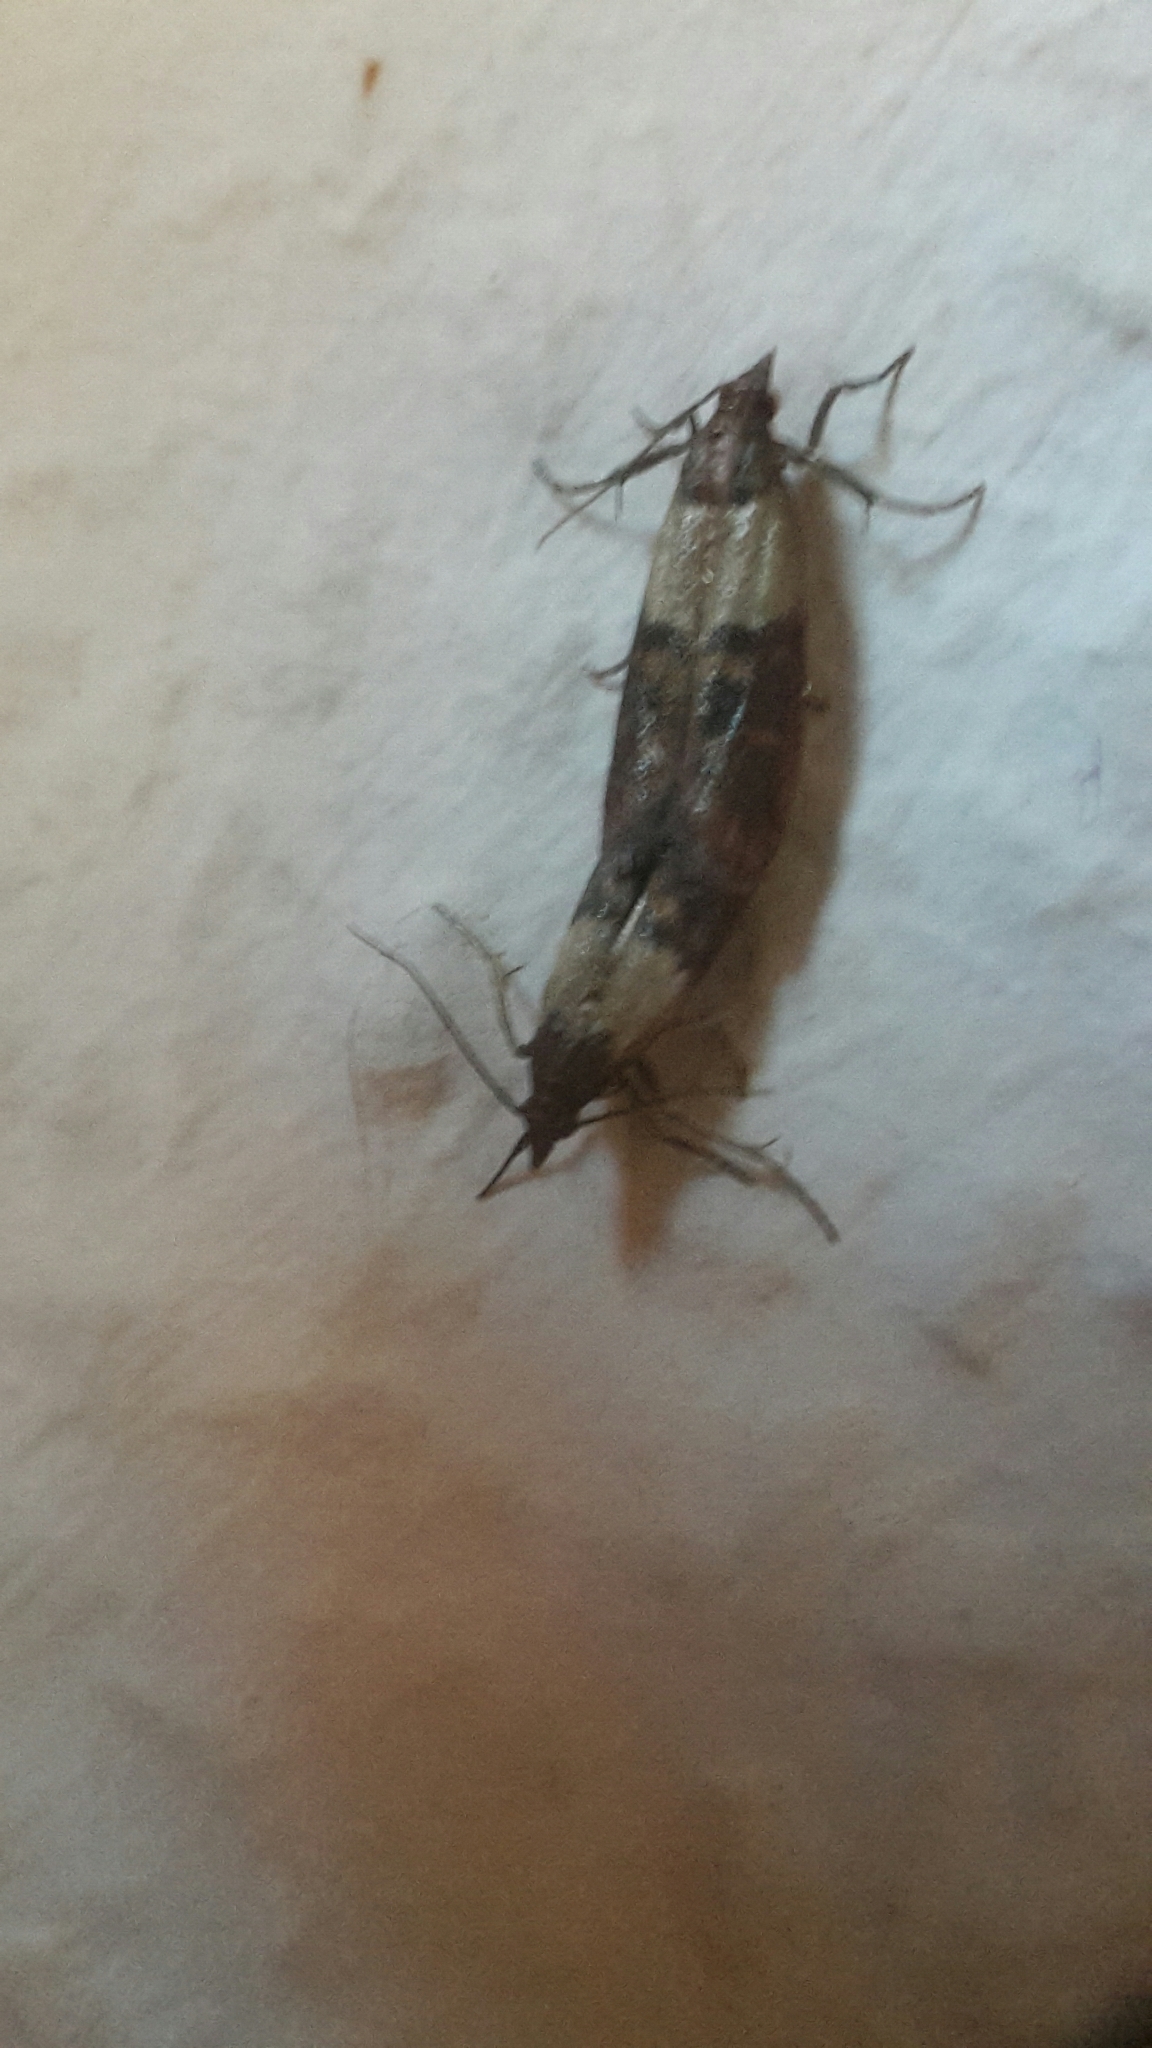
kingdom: Animalia
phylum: Arthropoda
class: Insecta
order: Lepidoptera
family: Pyralidae
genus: Plodia
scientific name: Plodia interpunctella
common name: Indian meal moth
